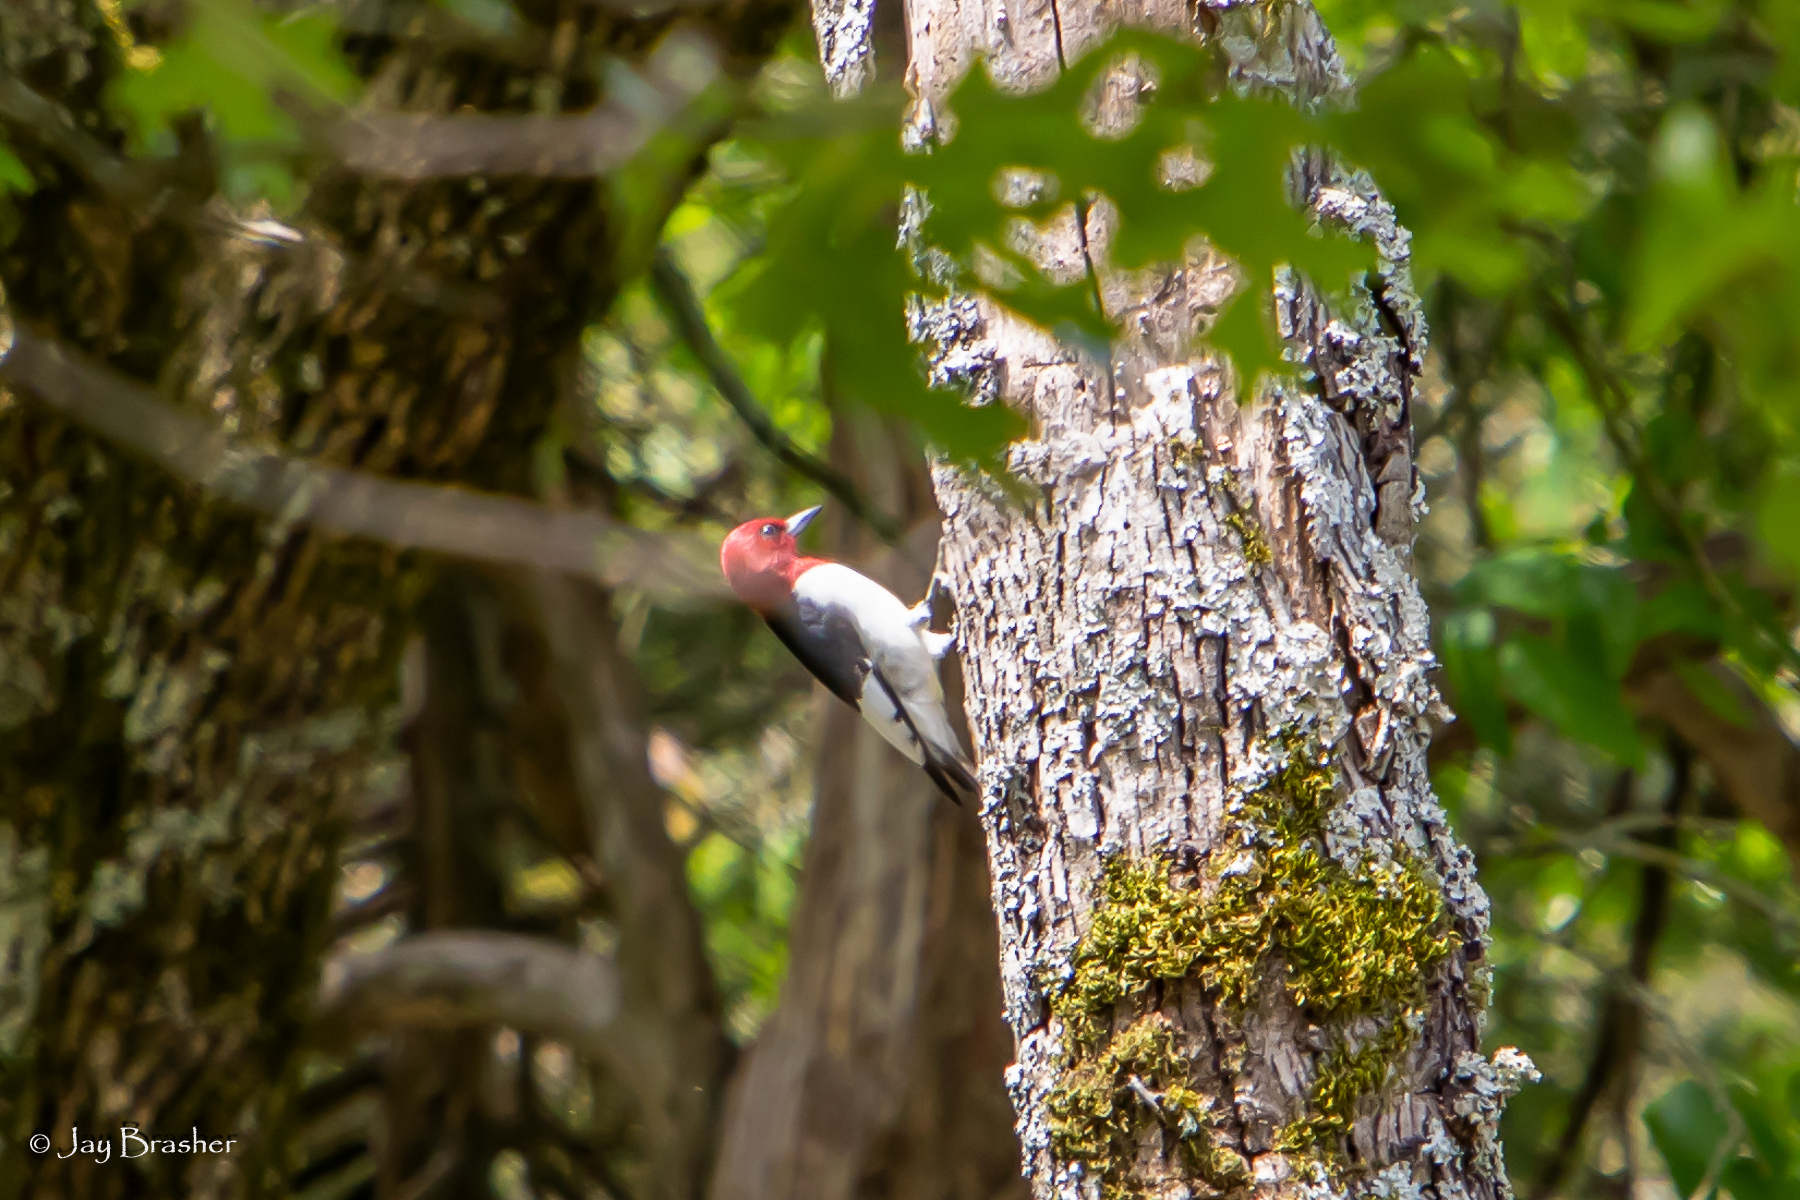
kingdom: Animalia
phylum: Chordata
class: Aves
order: Piciformes
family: Picidae
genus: Melanerpes
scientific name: Melanerpes erythrocephalus
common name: Red-headed woodpecker
